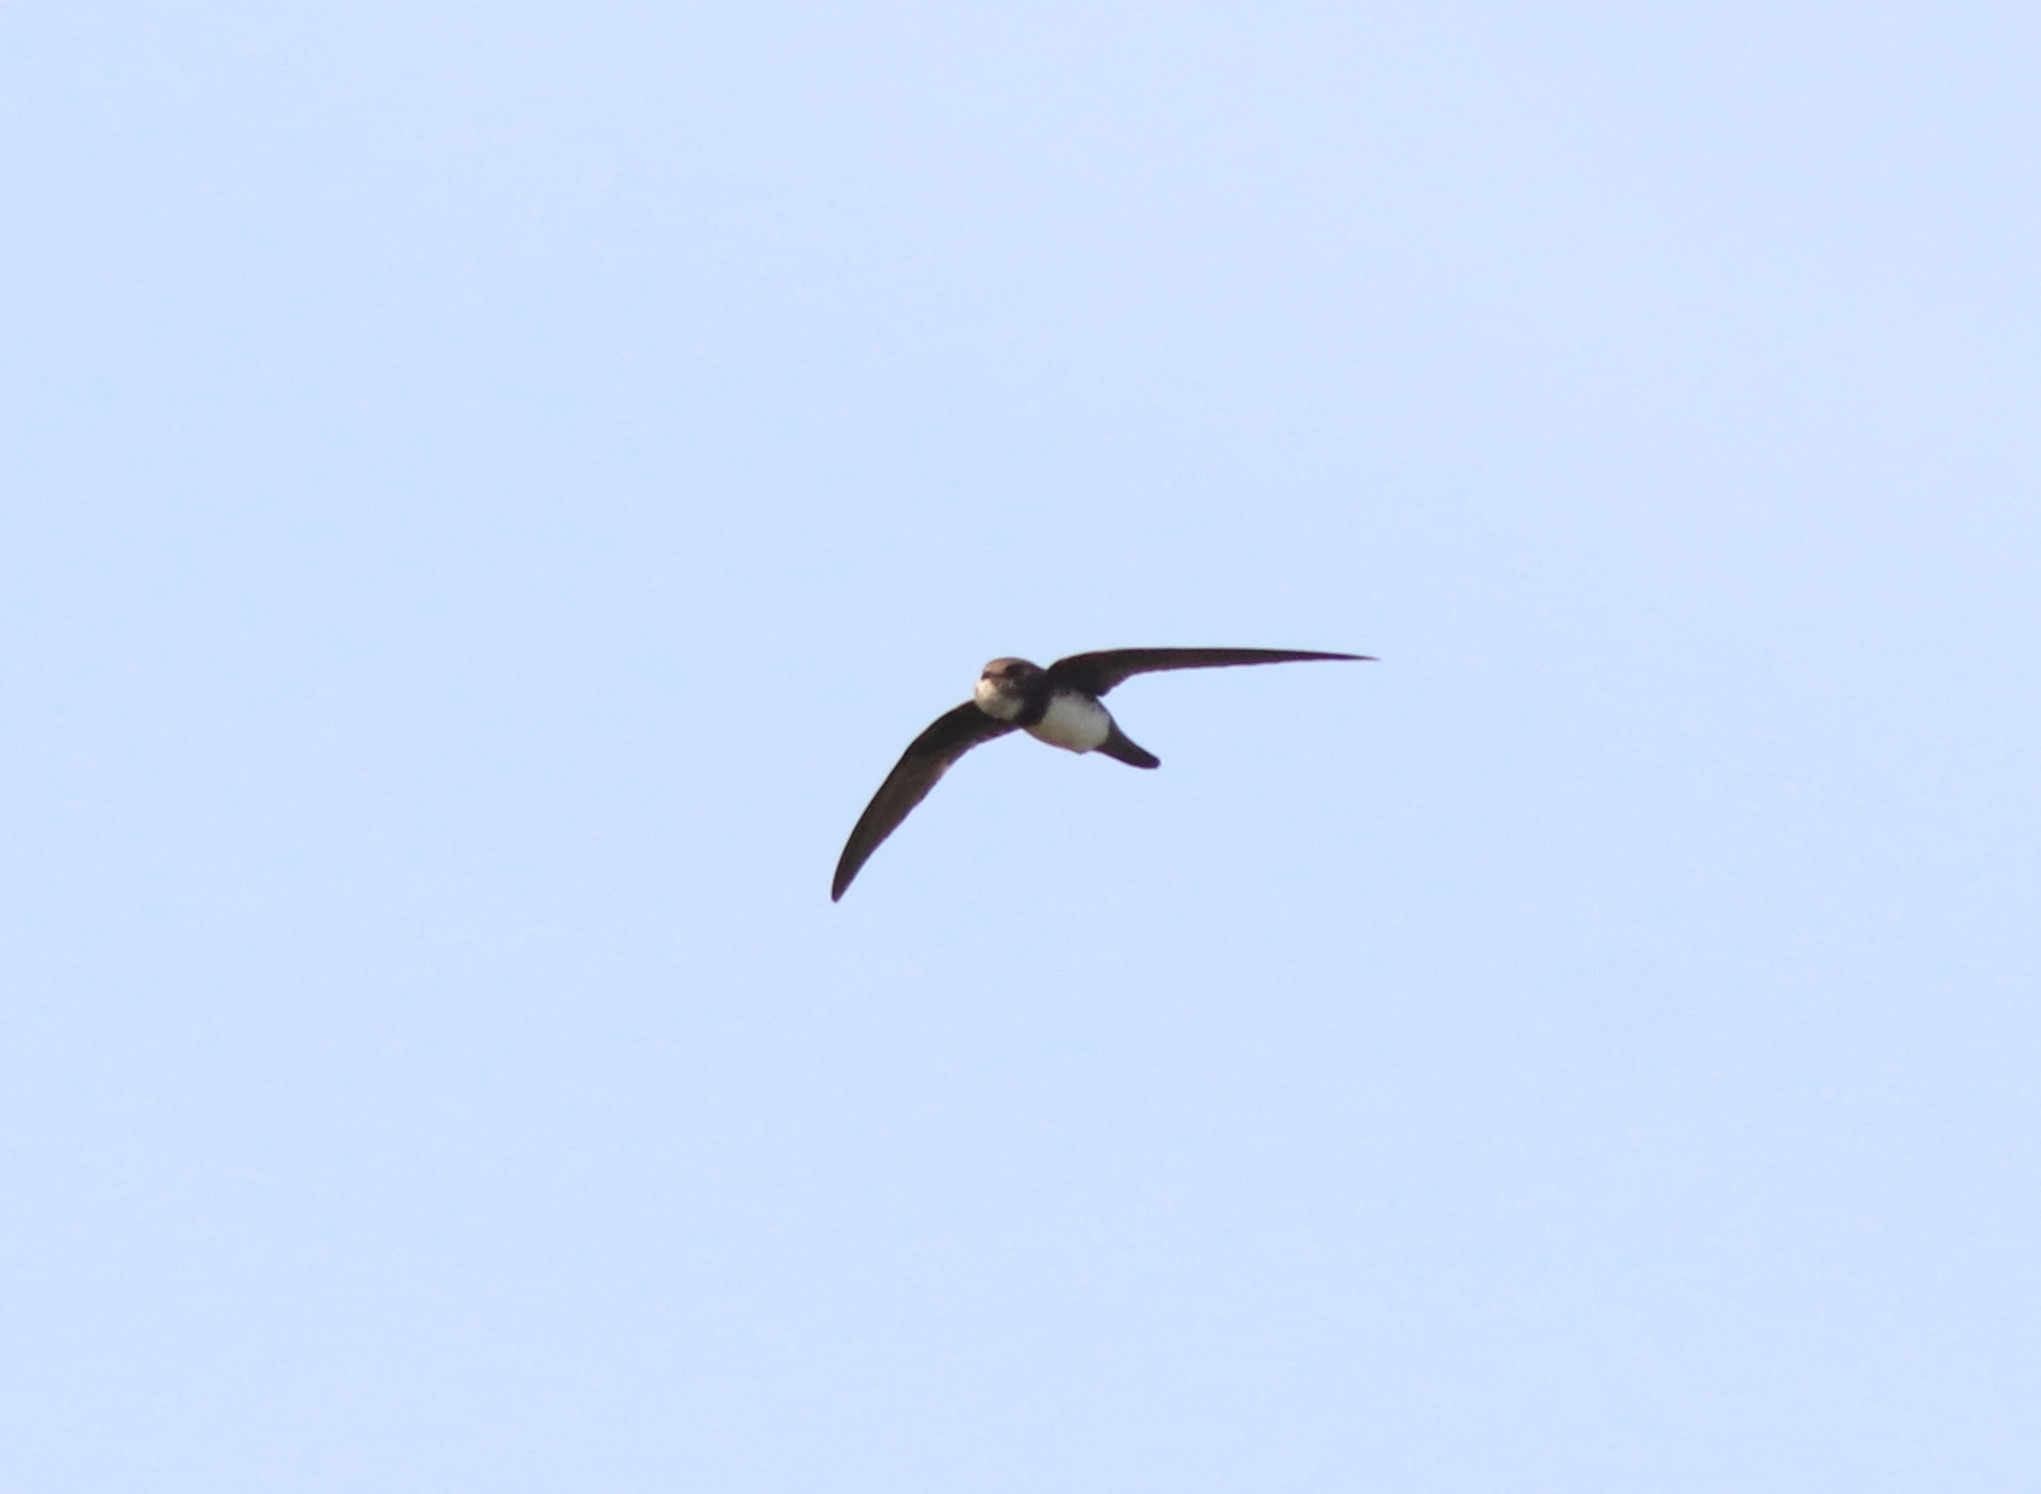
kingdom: Animalia
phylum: Chordata
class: Aves
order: Apodiformes
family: Apodidae
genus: Tachymarptis
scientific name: Tachymarptis melba
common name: Alpine swift
